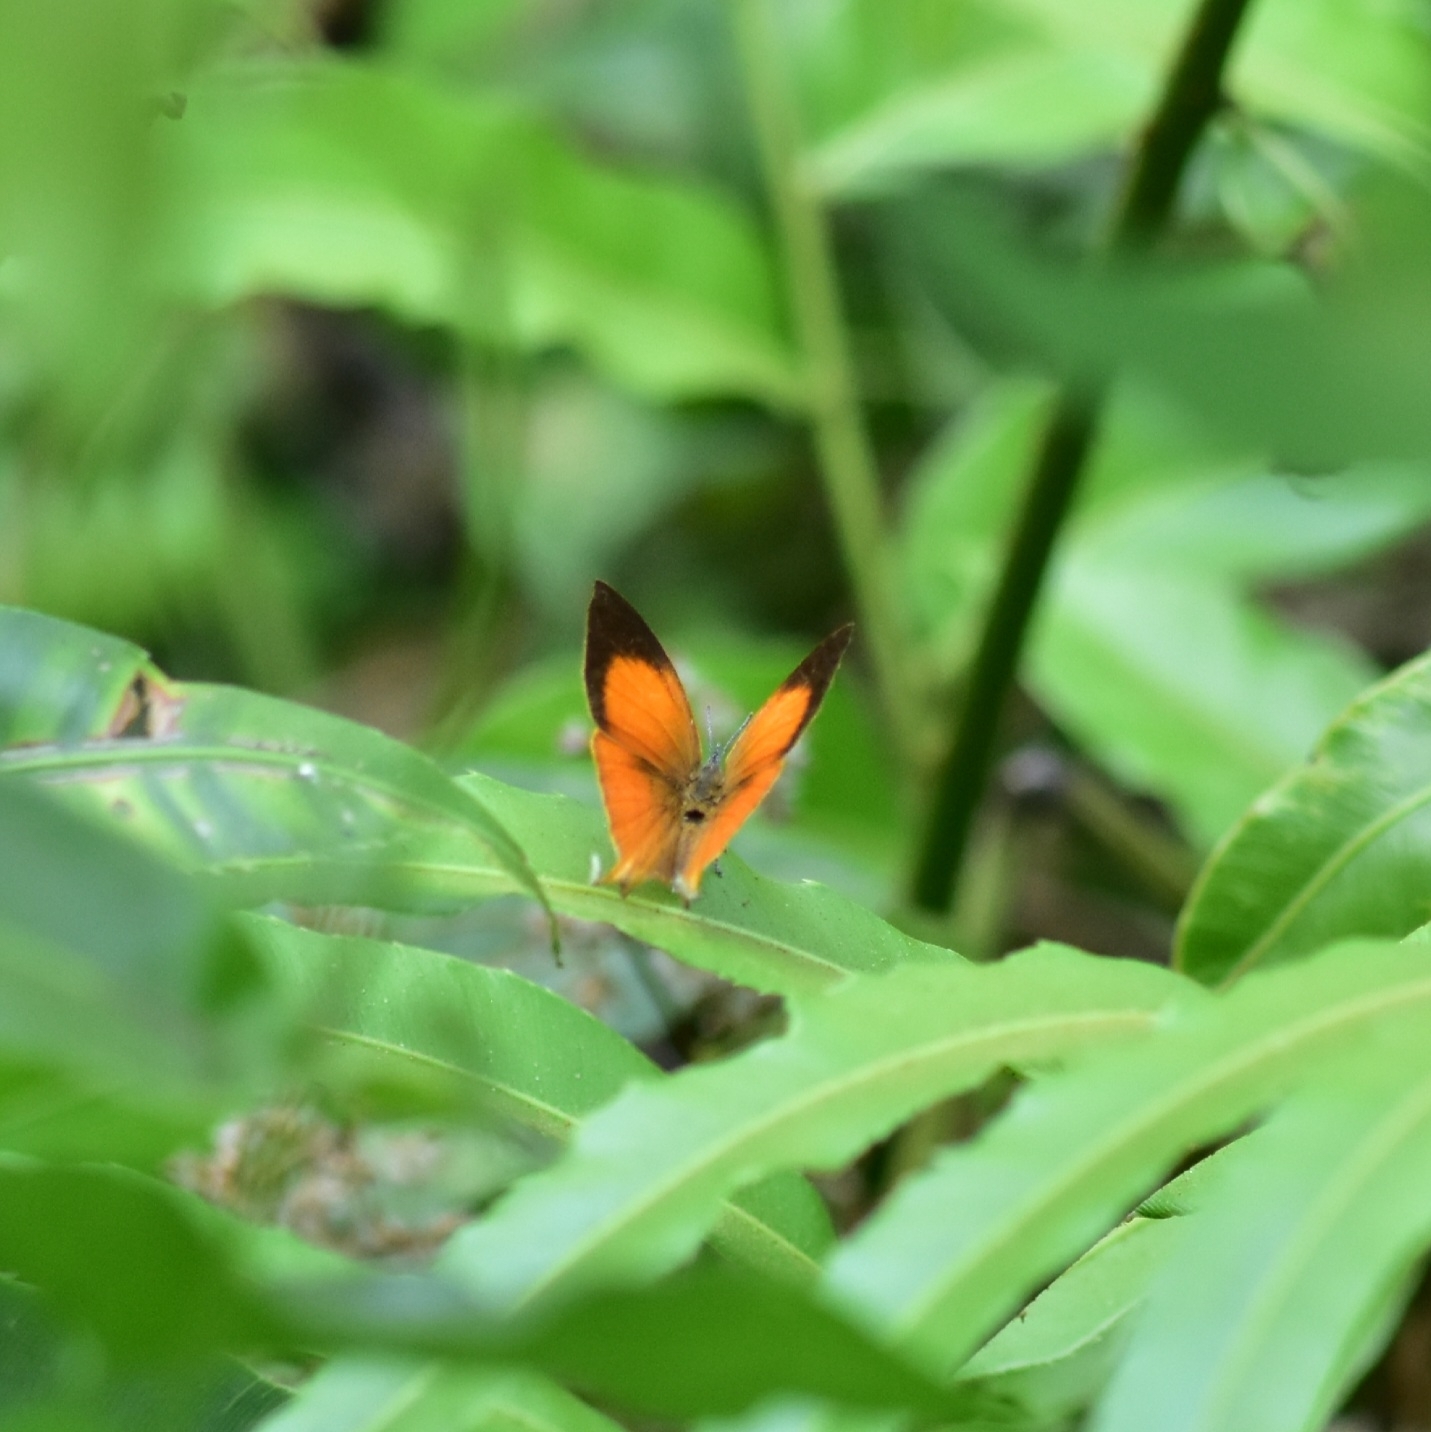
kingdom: Animalia
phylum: Arthropoda
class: Insecta
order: Lepidoptera
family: Lycaenidae
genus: Loxura
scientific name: Loxura atymnus
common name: Common yamfly
